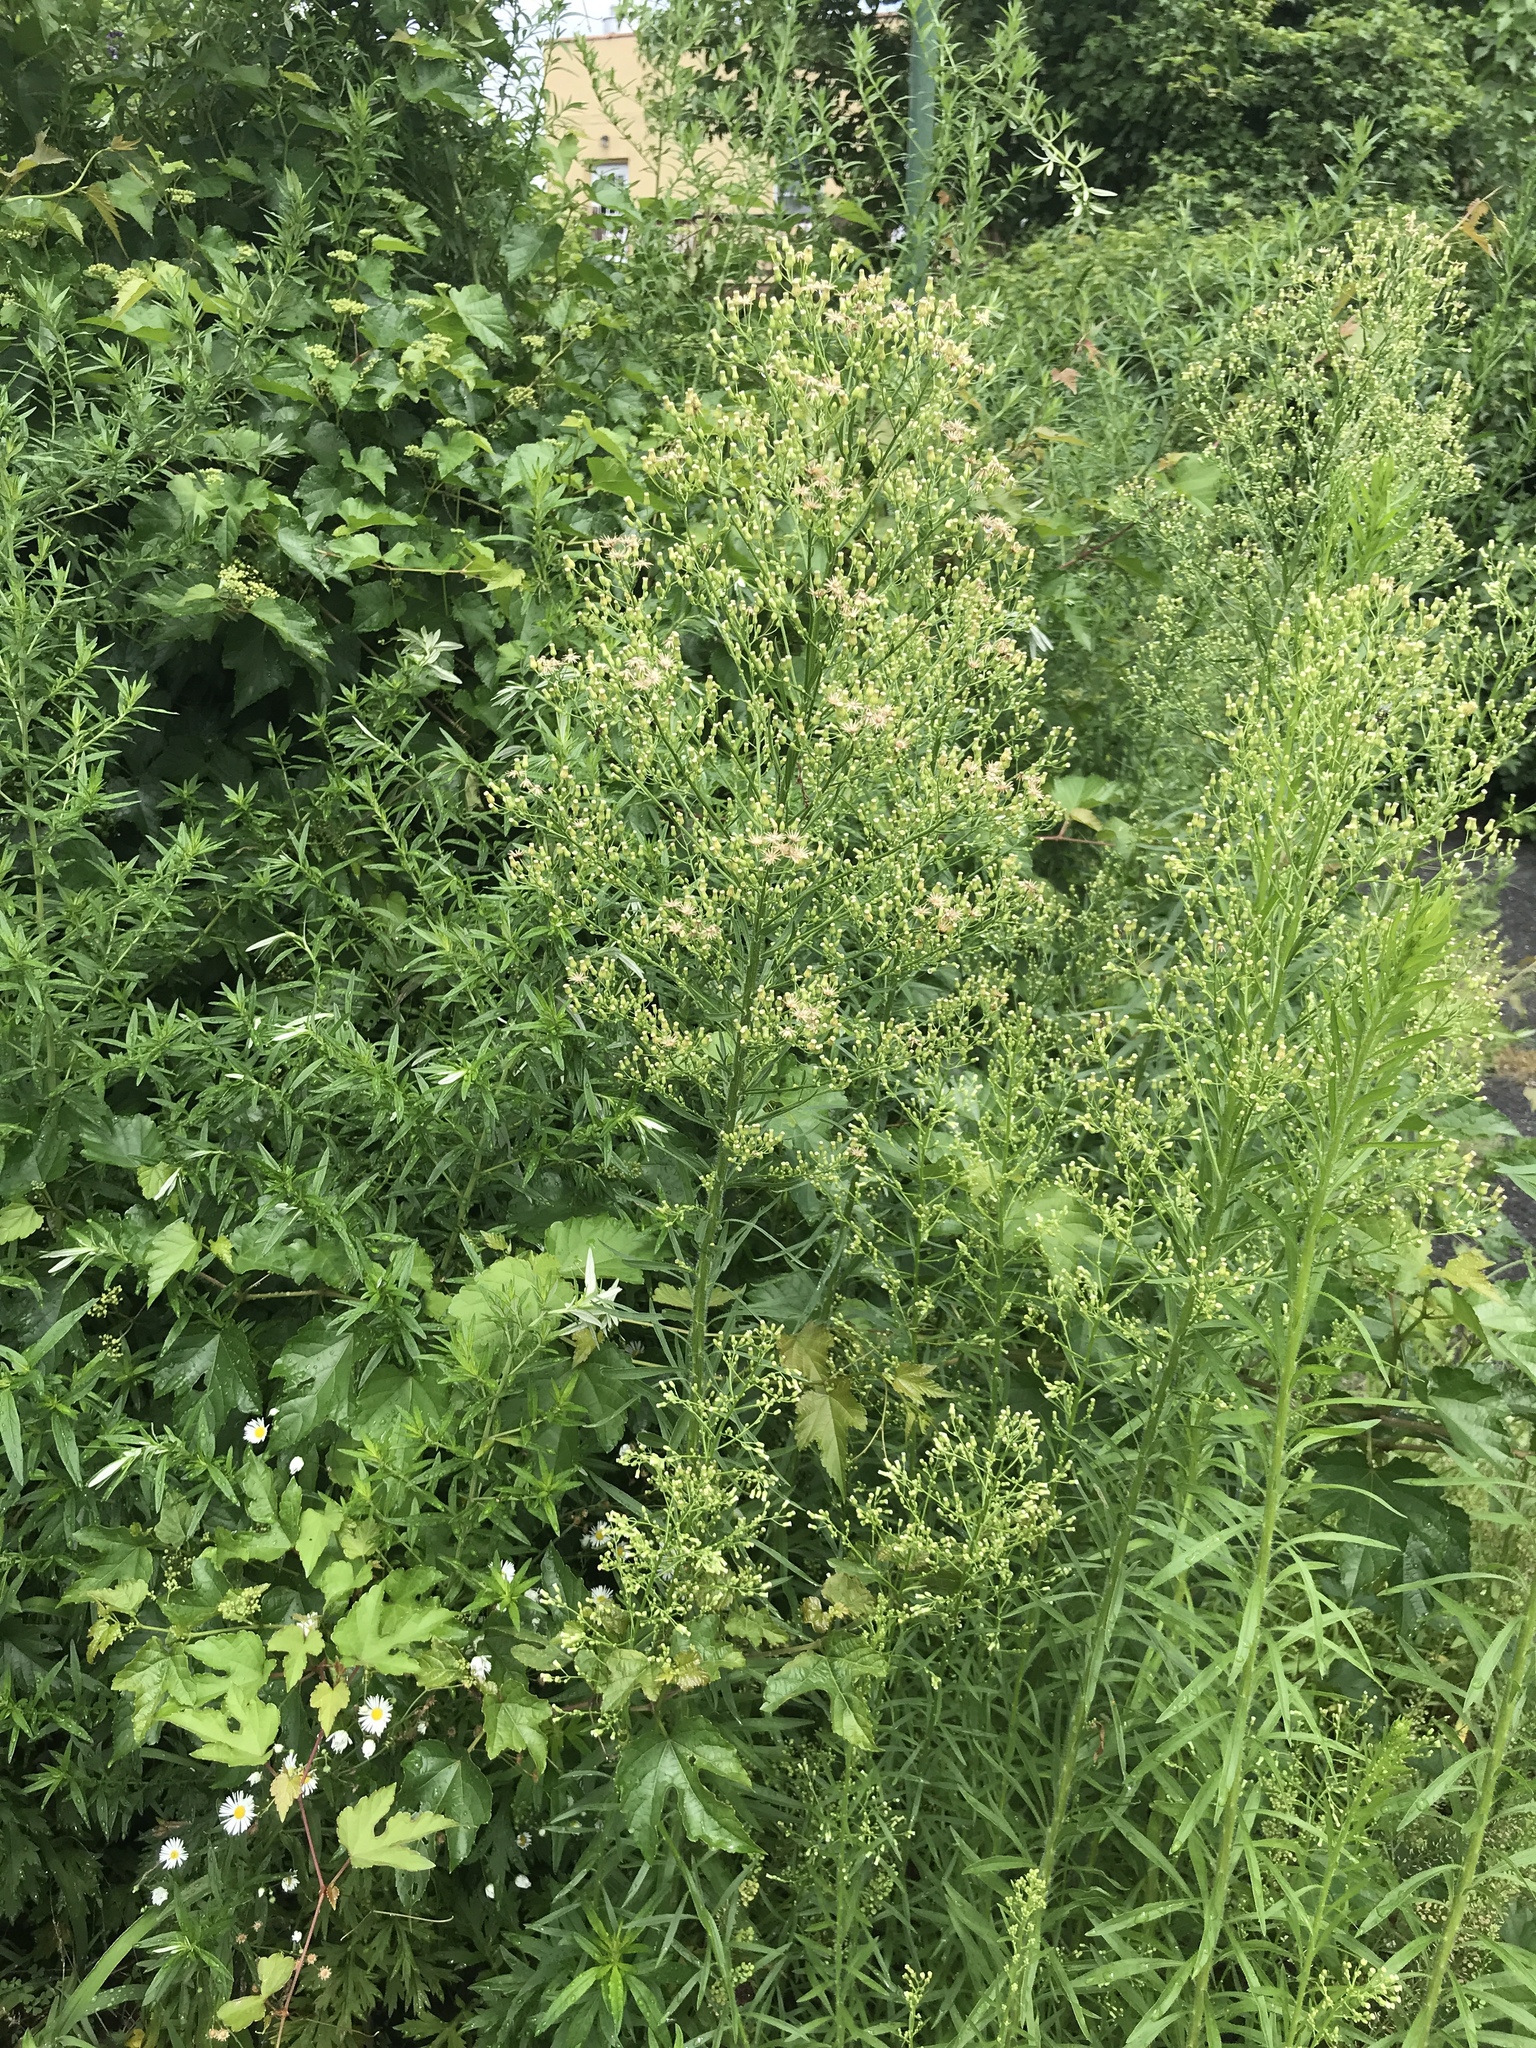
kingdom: Plantae
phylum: Tracheophyta
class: Magnoliopsida
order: Asterales
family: Asteraceae
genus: Erigeron
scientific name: Erigeron canadensis
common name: Canadian fleabane
